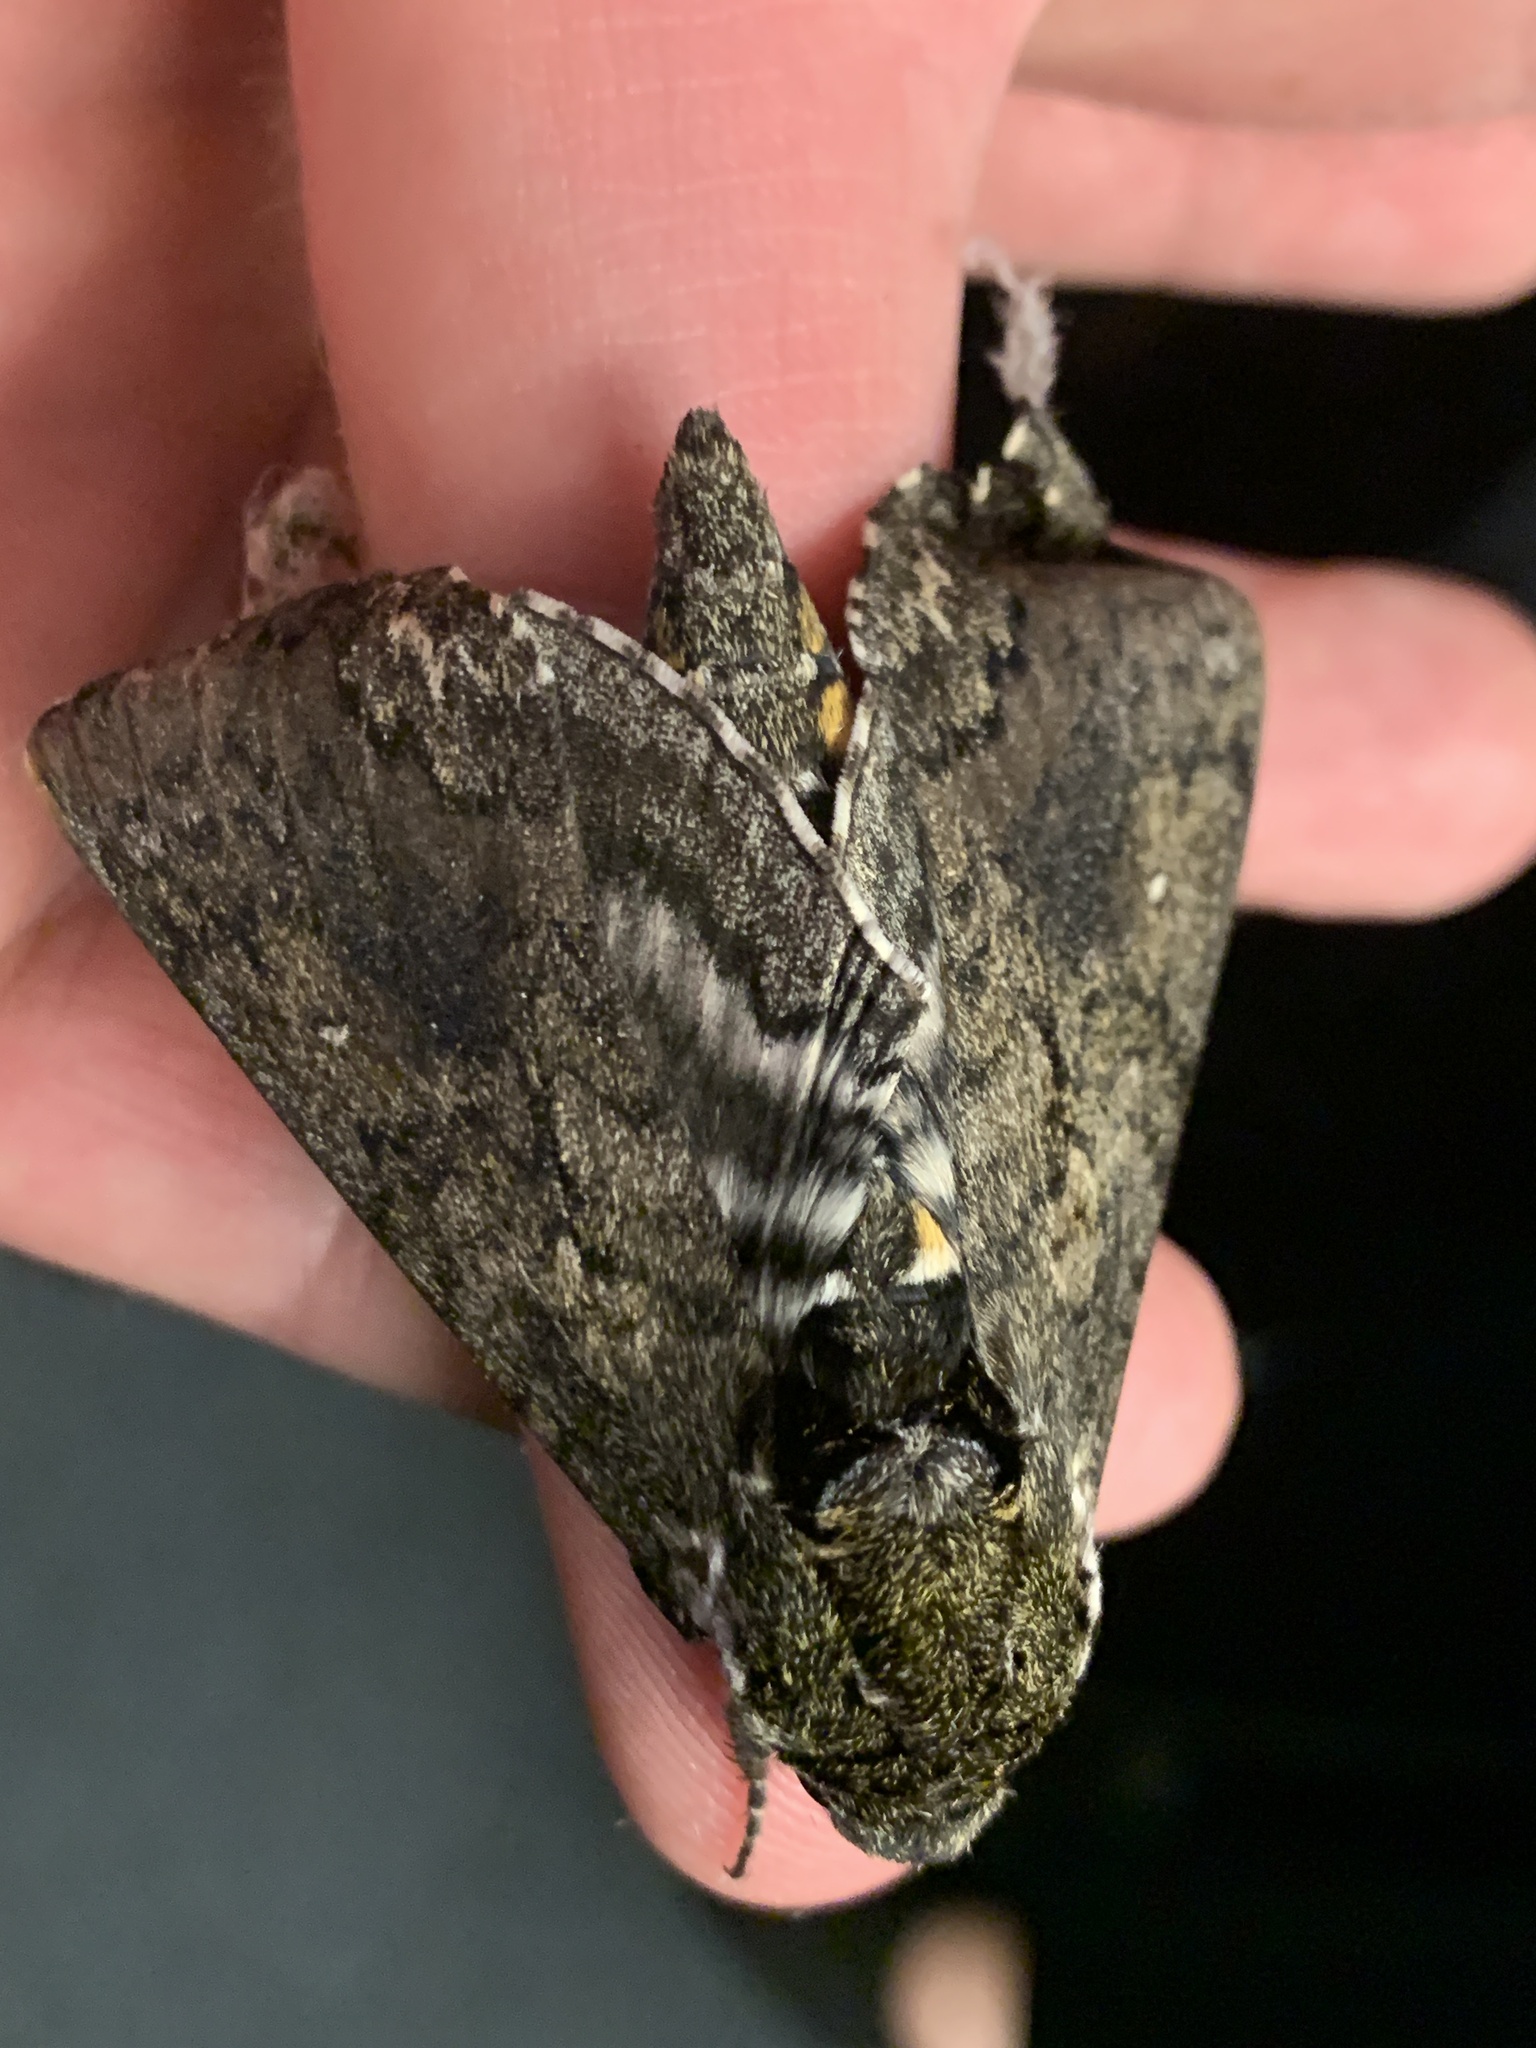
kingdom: Animalia
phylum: Arthropoda
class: Insecta
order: Lepidoptera
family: Sphingidae
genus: Manduca
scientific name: Manduca sexta
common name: Carolina sphinx
